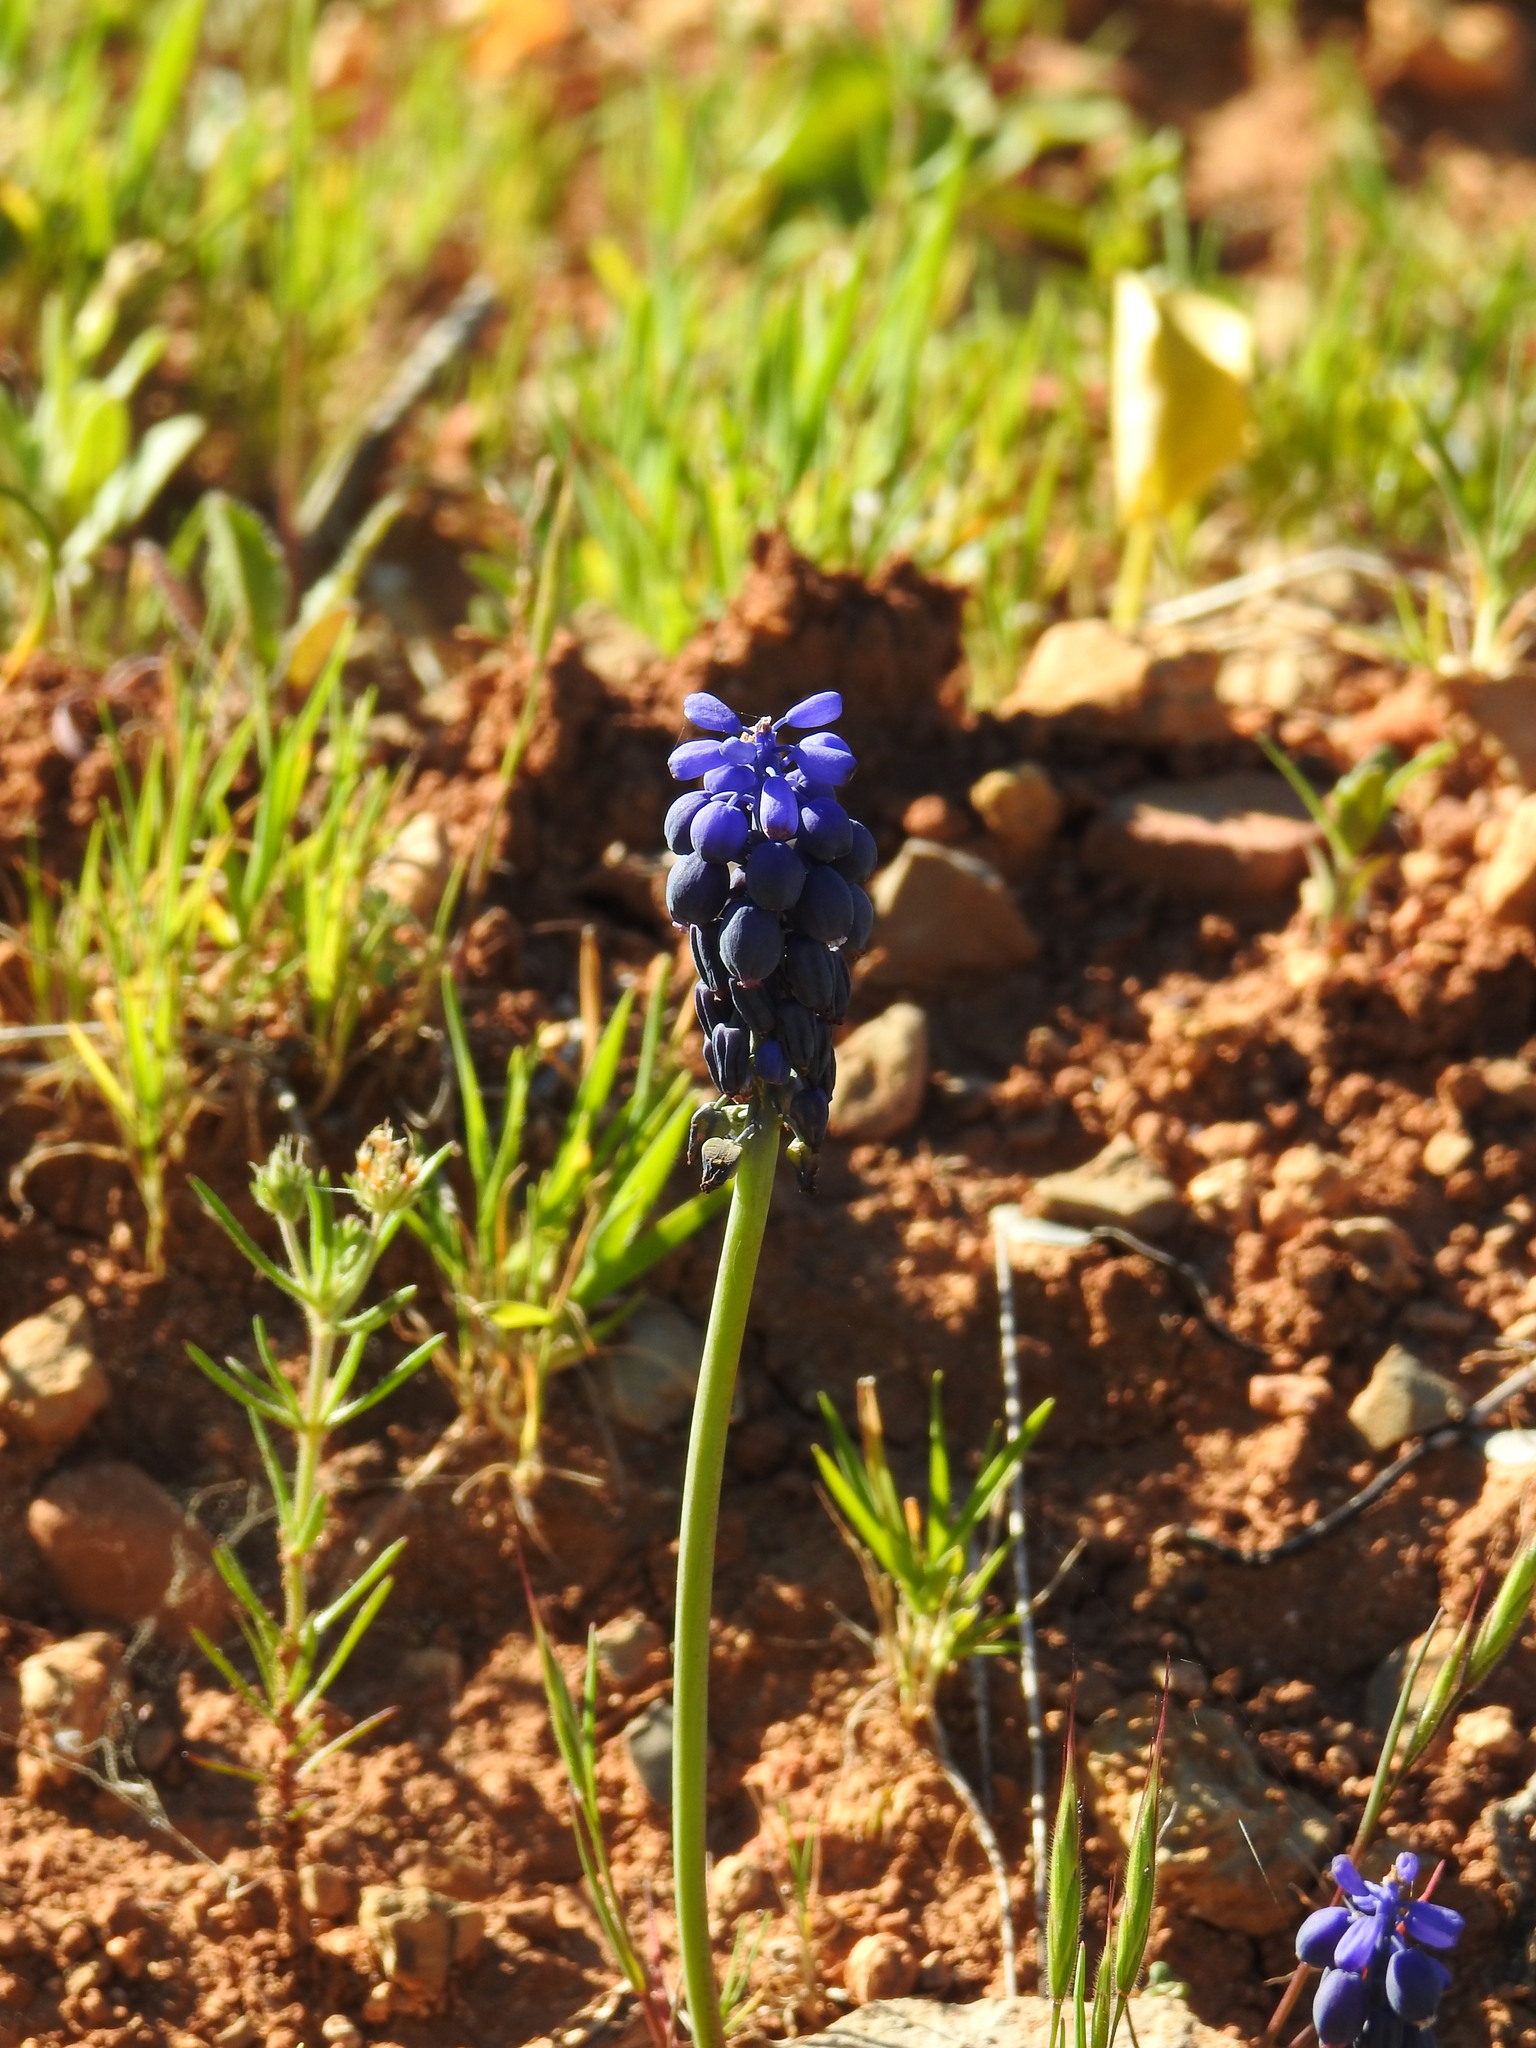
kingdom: Plantae
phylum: Tracheophyta
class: Liliopsida
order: Asparagales
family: Asparagaceae
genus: Muscari
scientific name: Muscari neglectum
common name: Grape-hyacinth
